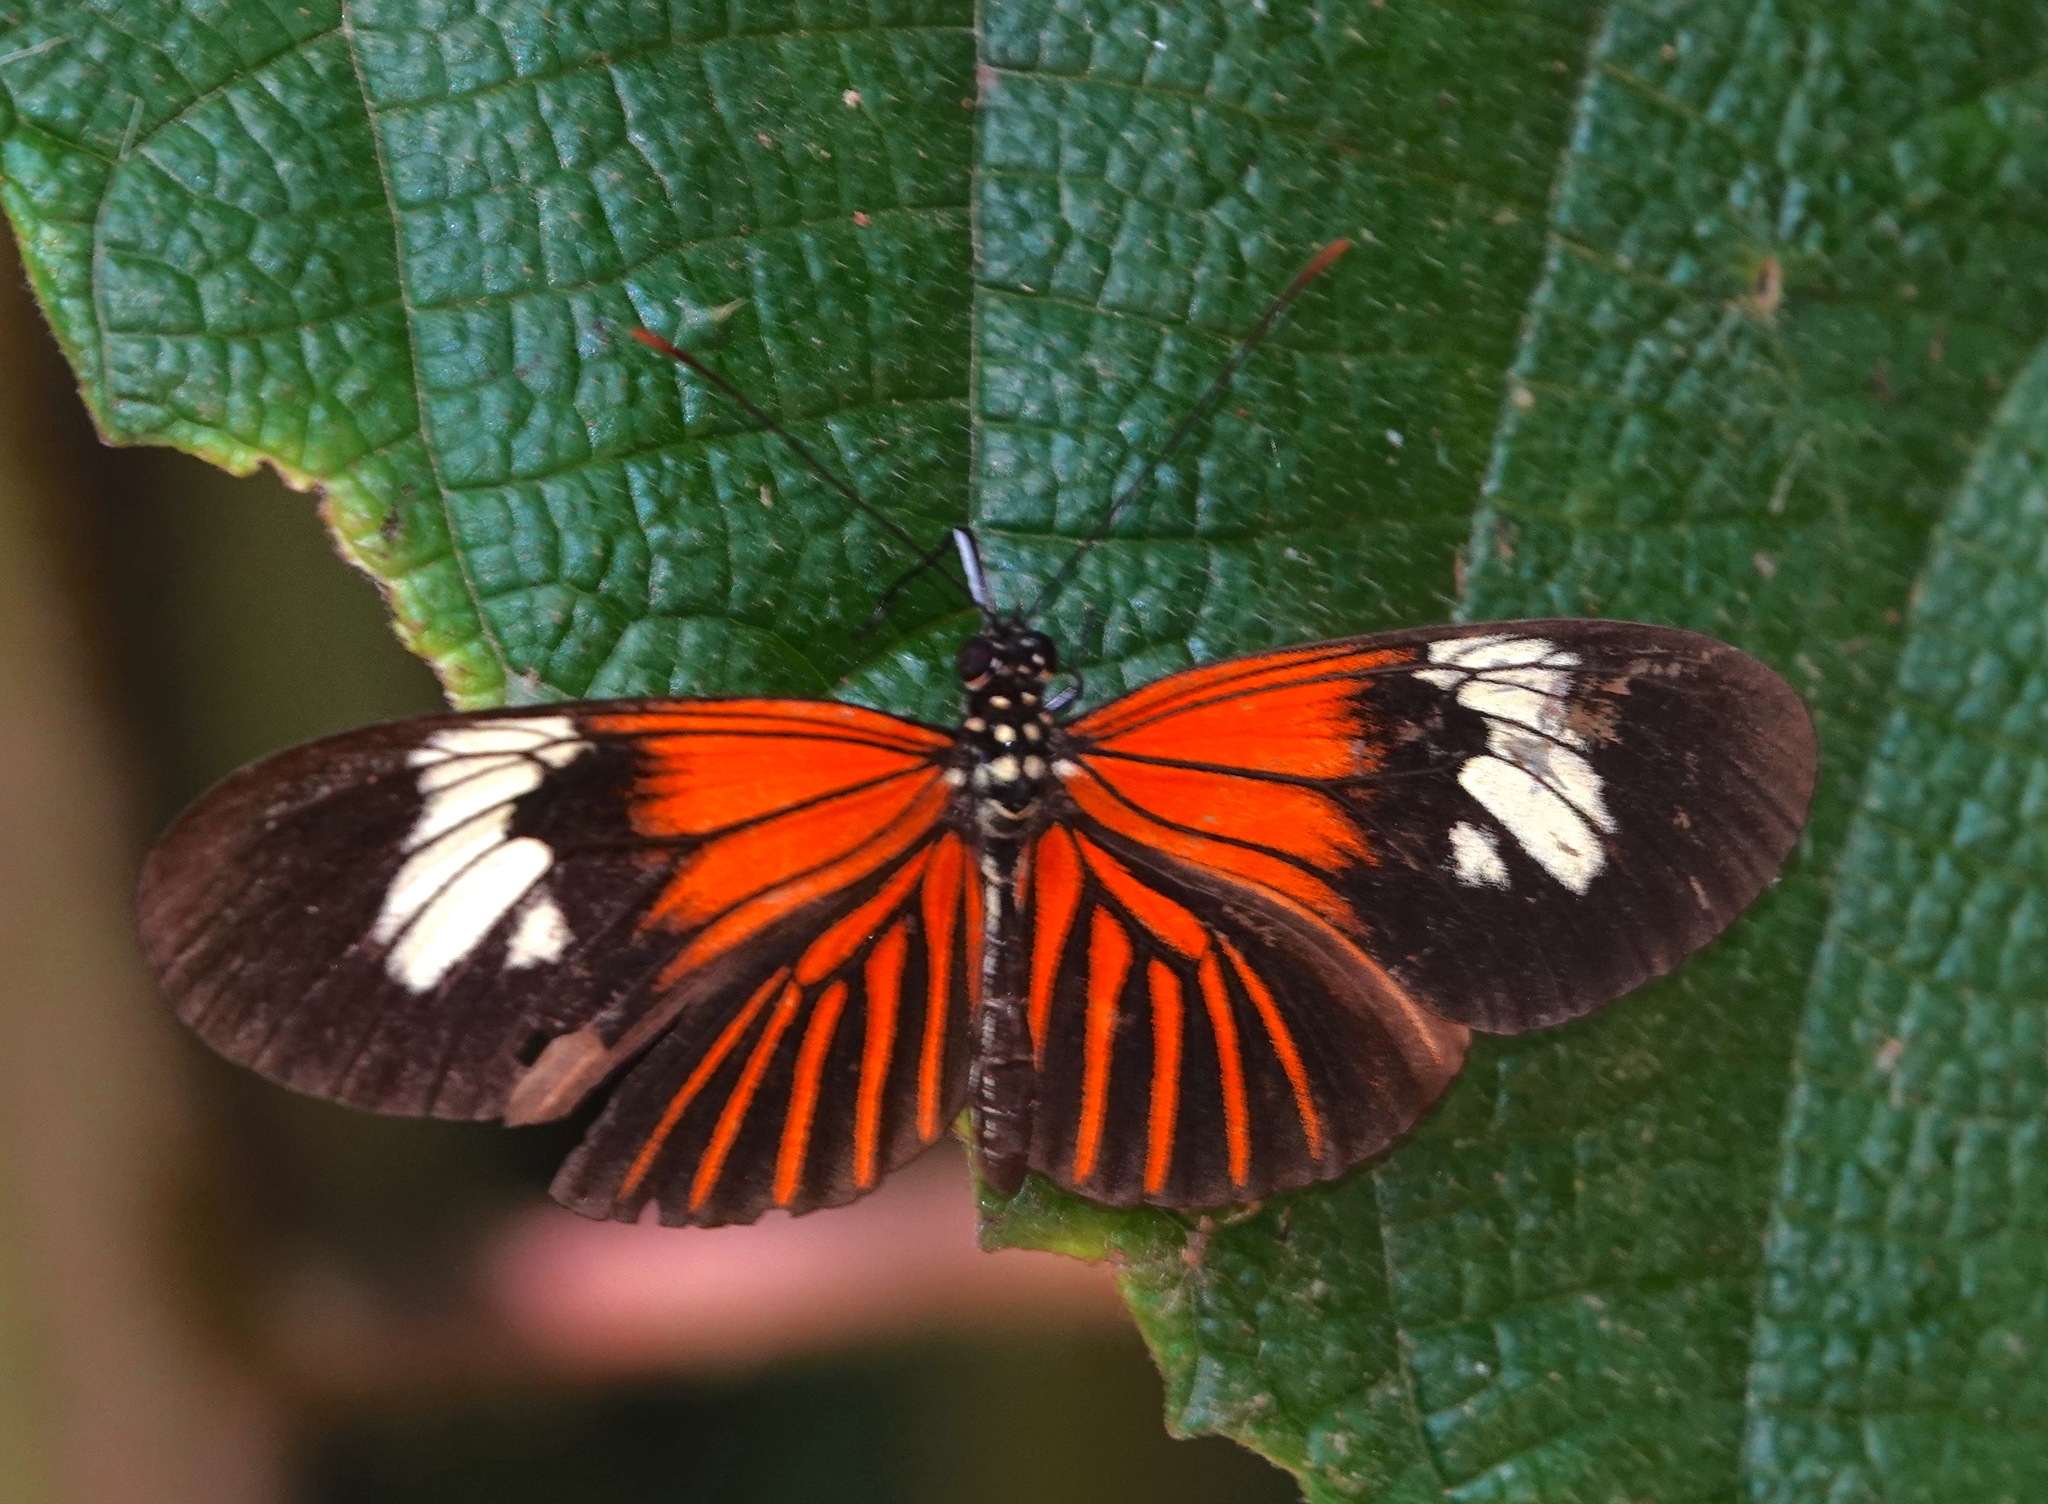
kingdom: Animalia
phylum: Arthropoda
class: Insecta
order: Lepidoptera
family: Nymphalidae
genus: Heliconius
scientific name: Heliconius erato
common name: Common patch longwing
